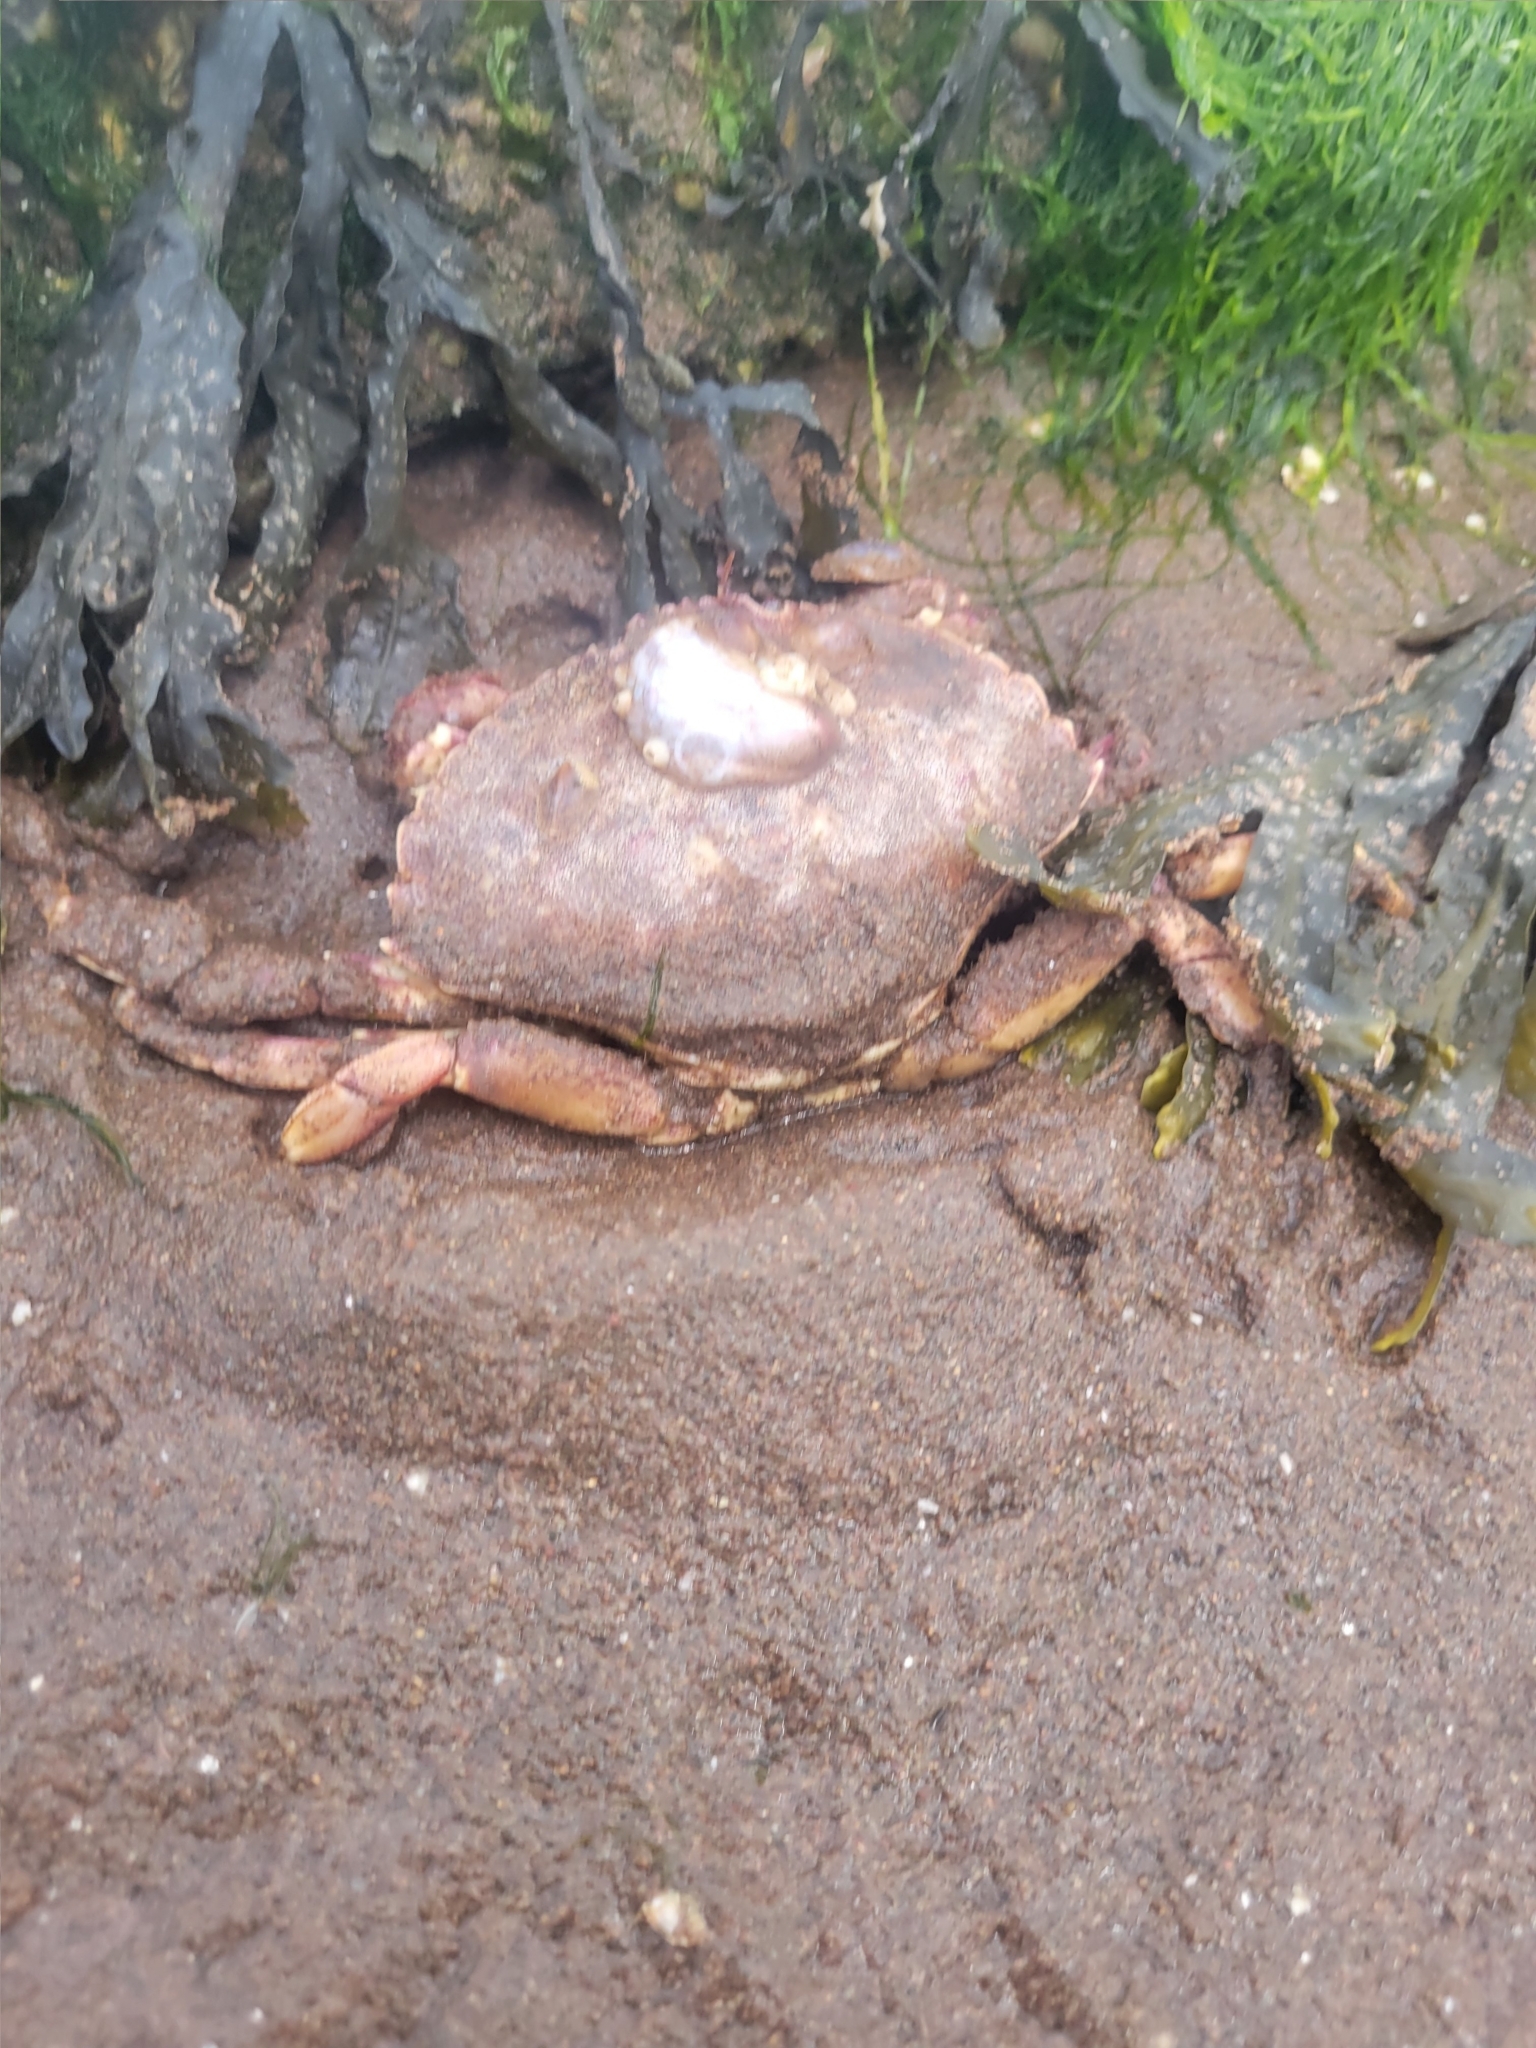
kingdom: Animalia
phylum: Arthropoda
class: Malacostraca
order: Decapoda
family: Cancridae
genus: Cancer
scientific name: Cancer irroratus
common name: Atlantic rock crab
